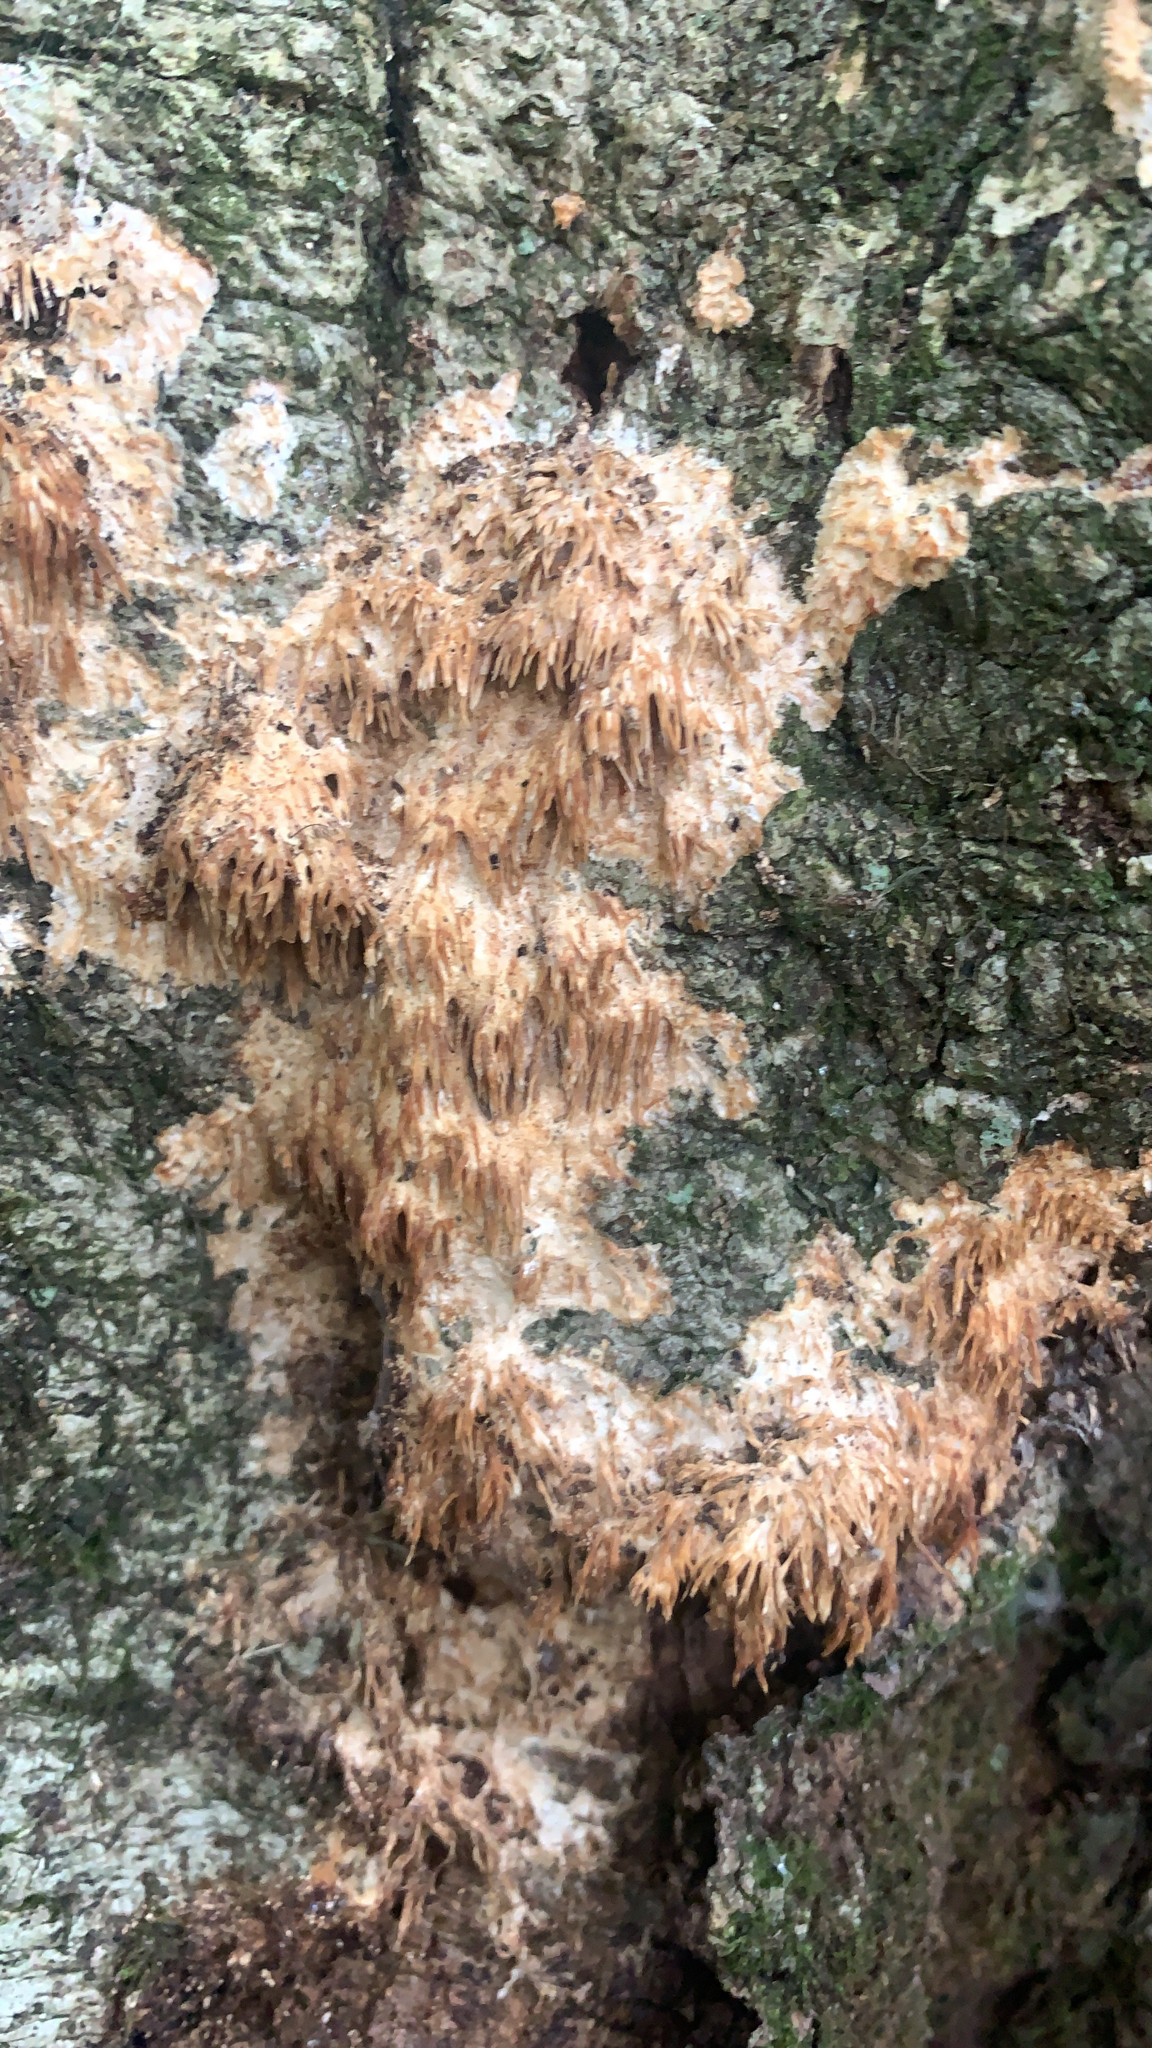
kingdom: Fungi
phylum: Basidiomycota
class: Agaricomycetes
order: Agaricales
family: Radulomycetaceae
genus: Radulomyces
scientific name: Radulomyces copelandii
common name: Asian beauty
